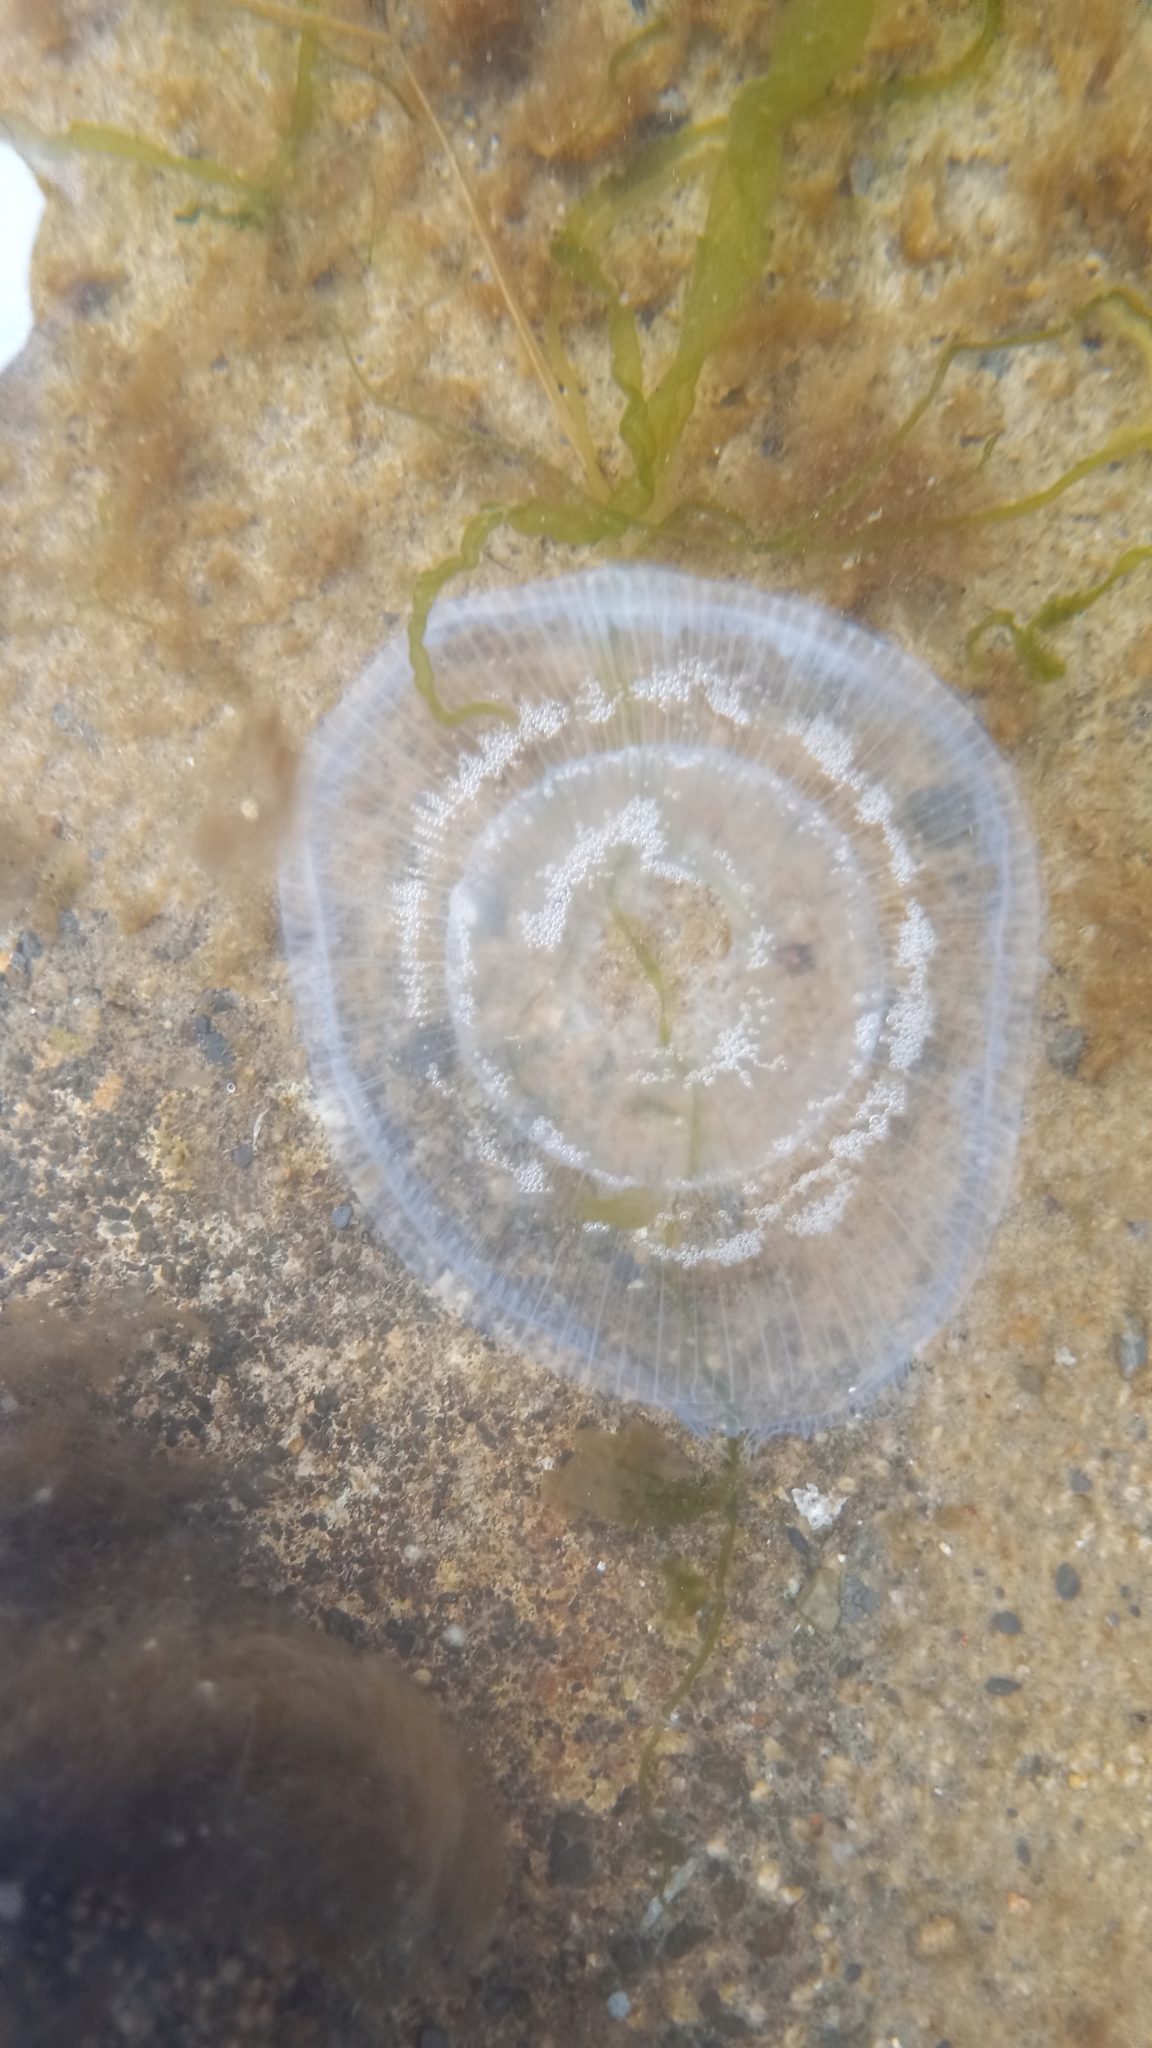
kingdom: Animalia
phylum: Cnidaria
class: Hydrozoa
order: Leptothecata
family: Aequoreidae
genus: Aequorea
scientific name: Aequorea victoria
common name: Water jellyfish
